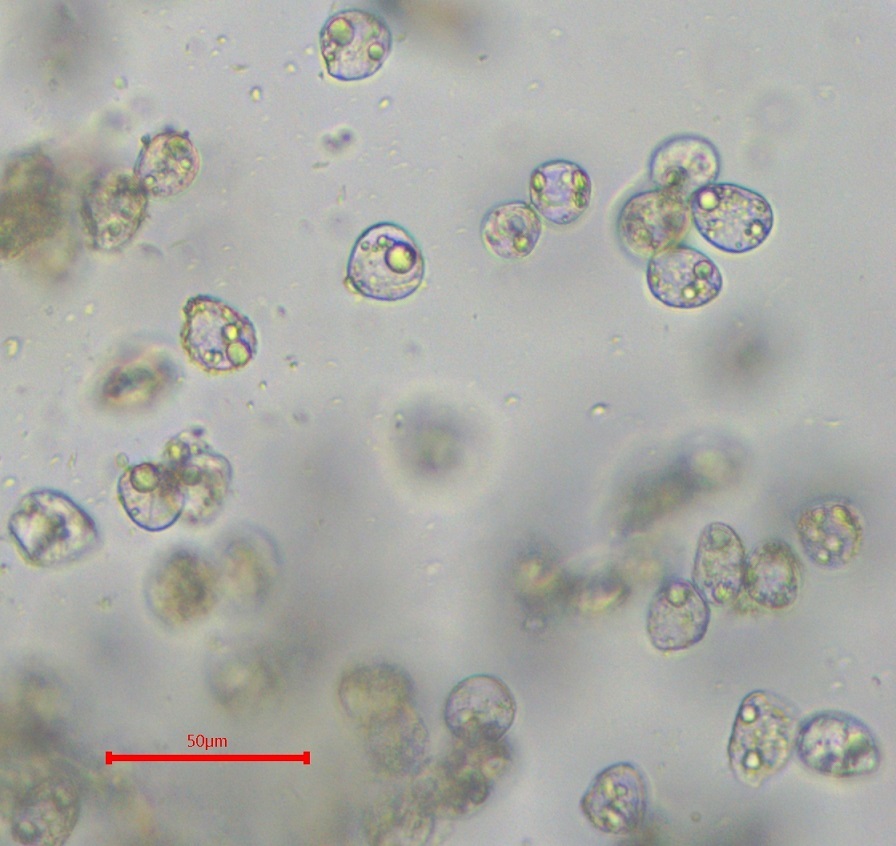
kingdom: Plantae
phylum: Bryophyta
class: Bryopsida
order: Pottiales
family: Pottiaceae
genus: Pterygoneurum
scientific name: Pterygoneurum ovatum
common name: Ovate pterygoneurum
